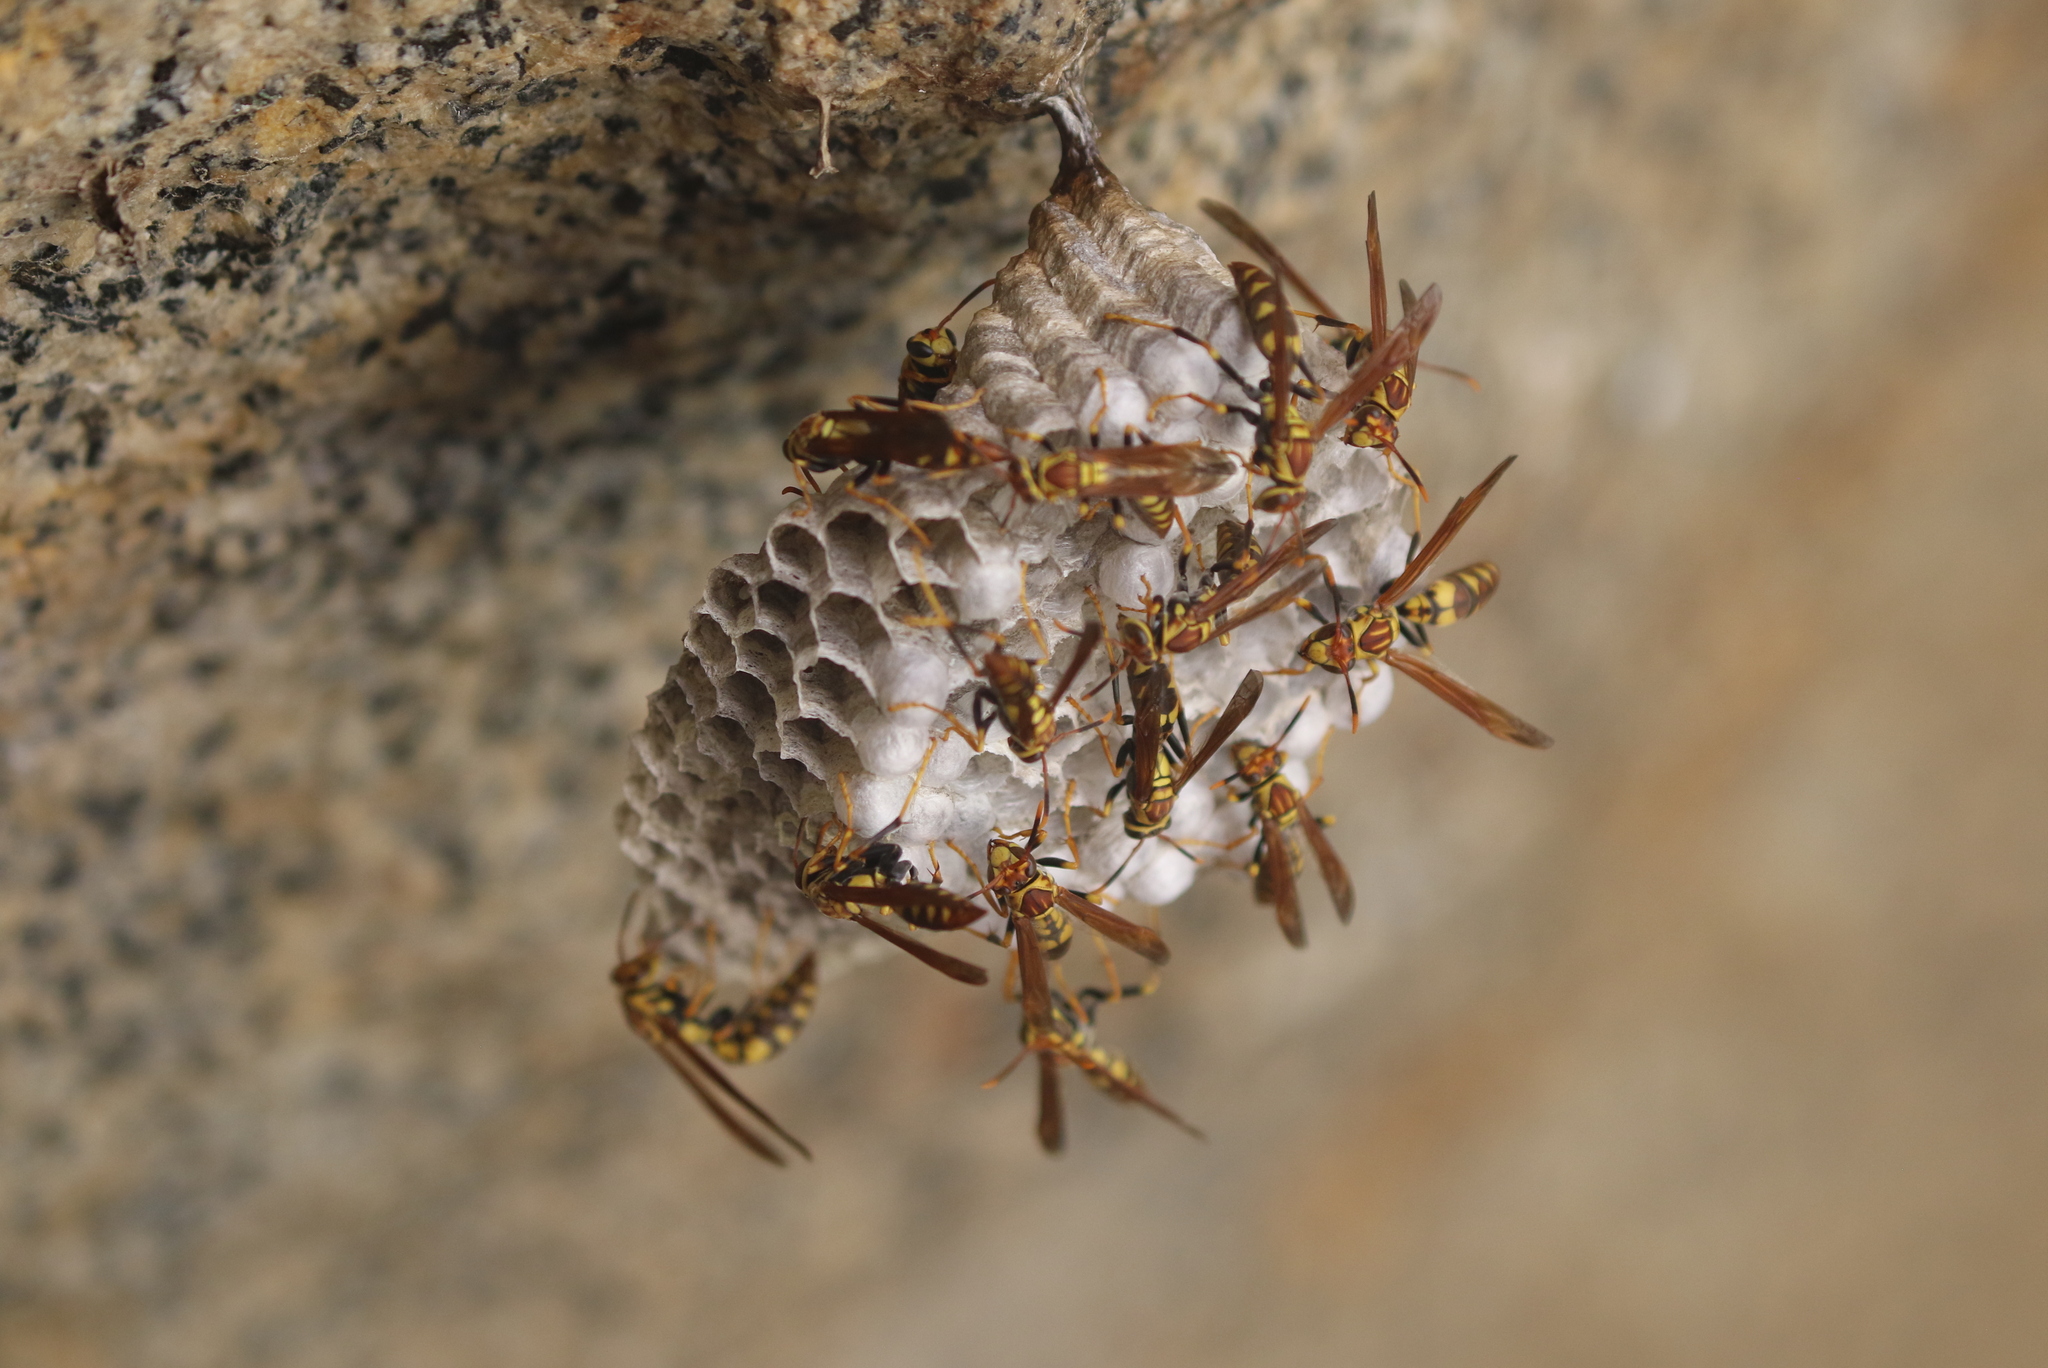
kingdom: Animalia
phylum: Arthropoda
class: Insecta
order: Hymenoptera
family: Eumenidae
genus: Polistes
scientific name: Polistes myersi
